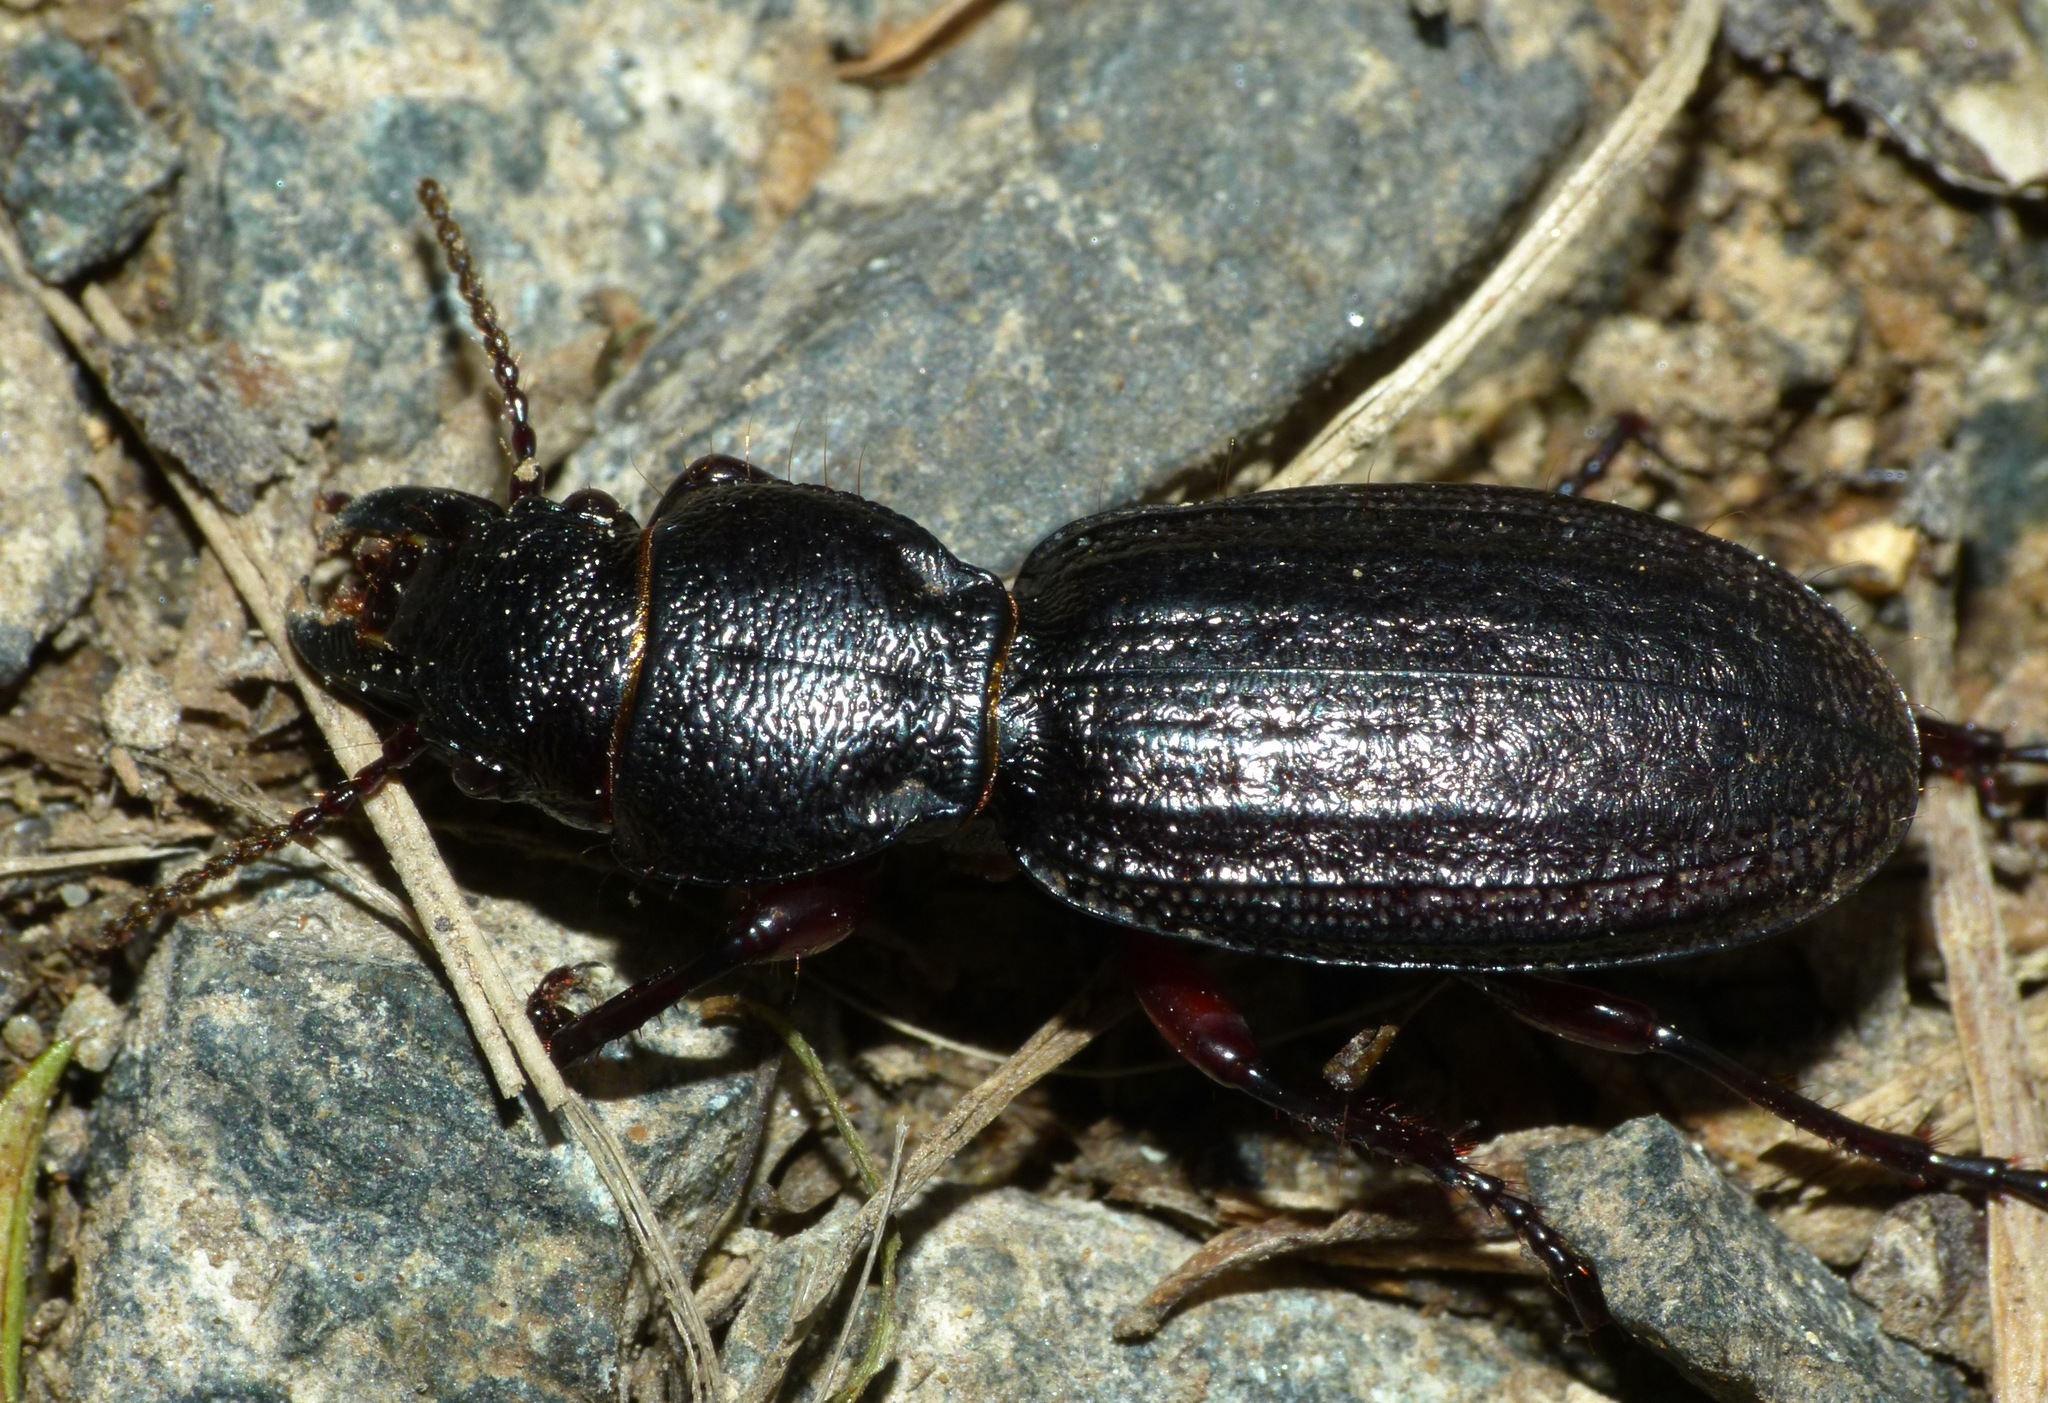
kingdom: Animalia
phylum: Arthropoda
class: Insecta
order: Coleoptera
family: Carabidae
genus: Mecodema
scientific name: Mecodema sculpturatum
